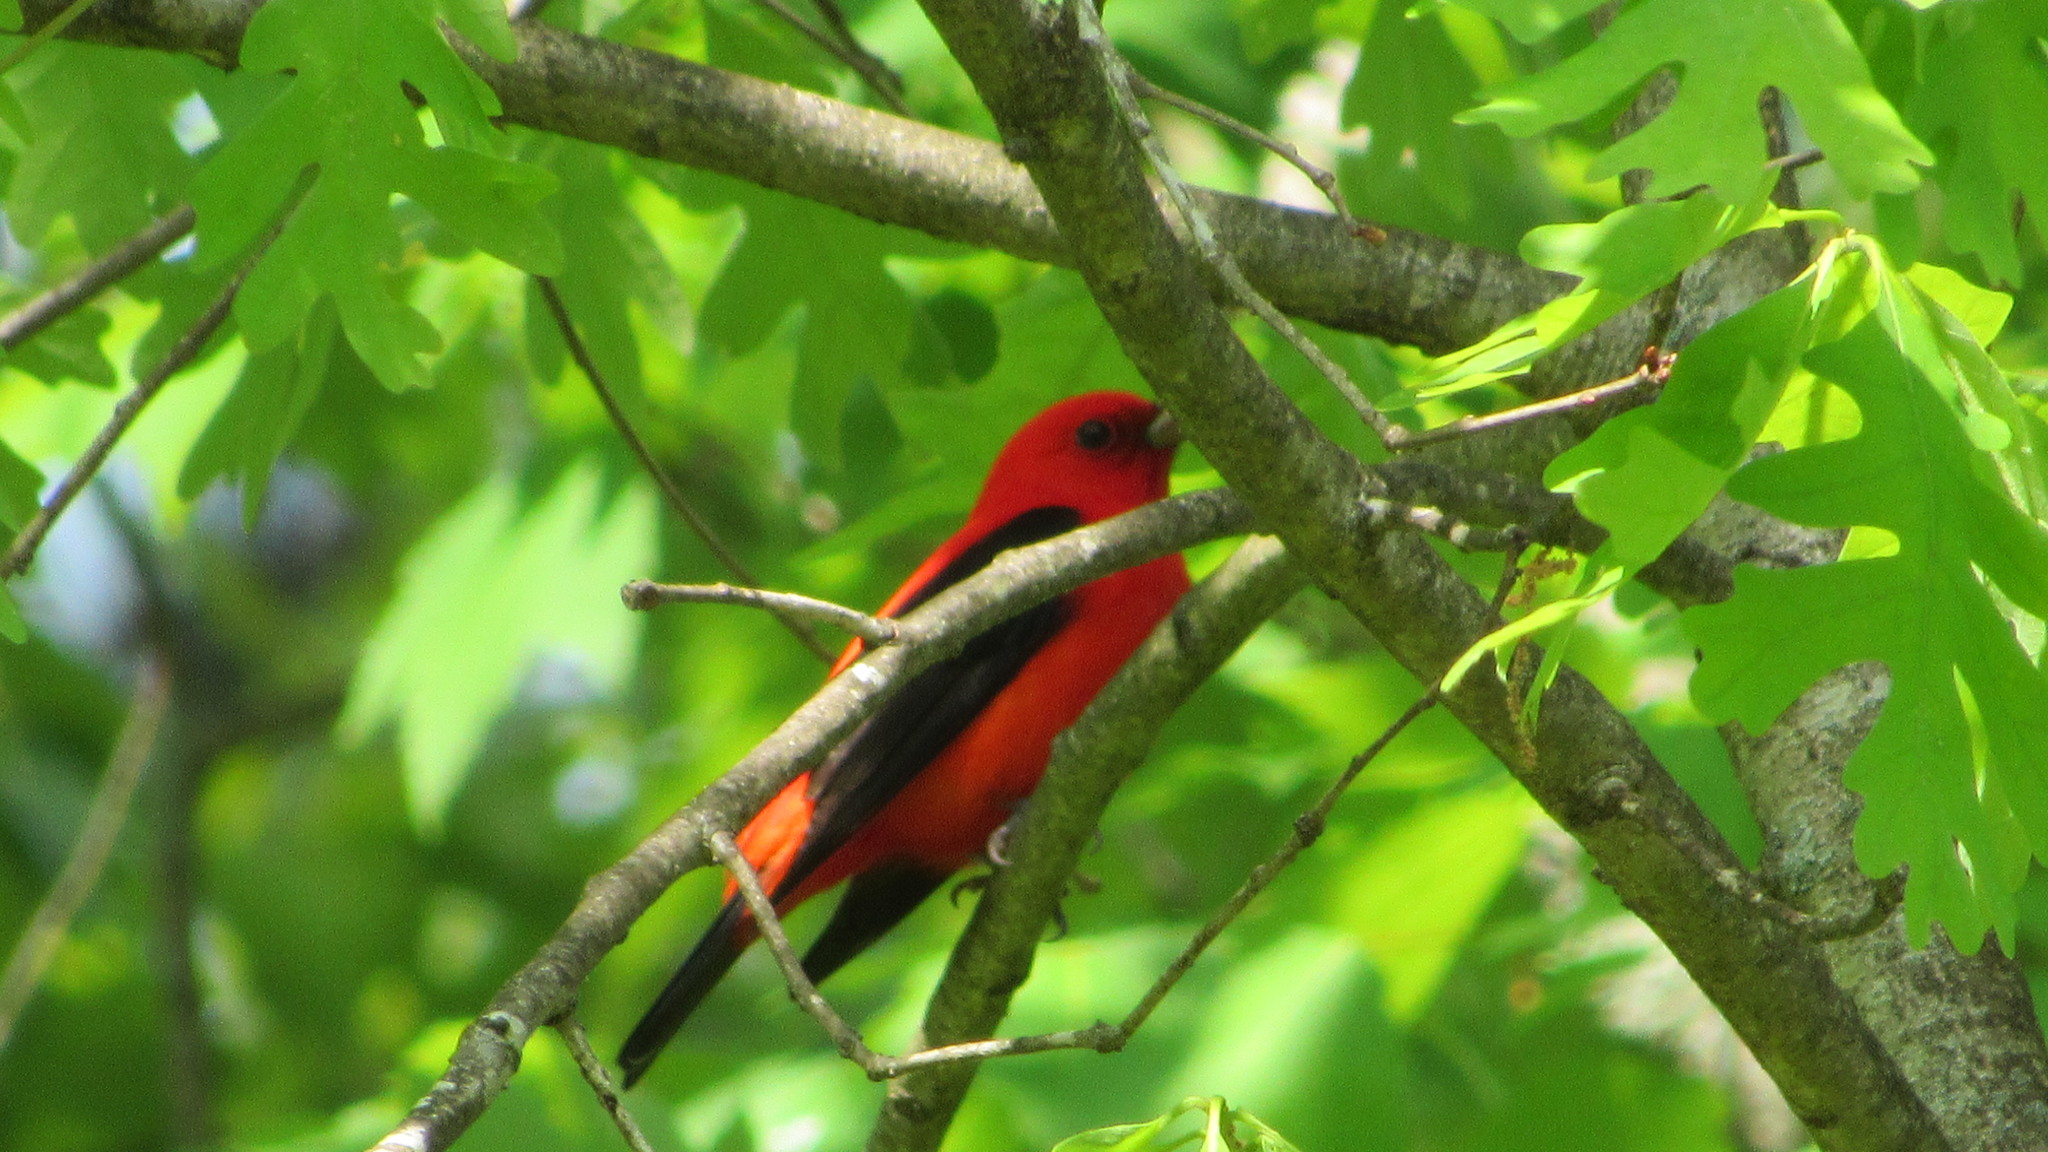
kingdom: Animalia
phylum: Chordata
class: Aves
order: Passeriformes
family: Cardinalidae
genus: Piranga
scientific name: Piranga olivacea
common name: Scarlet tanager
